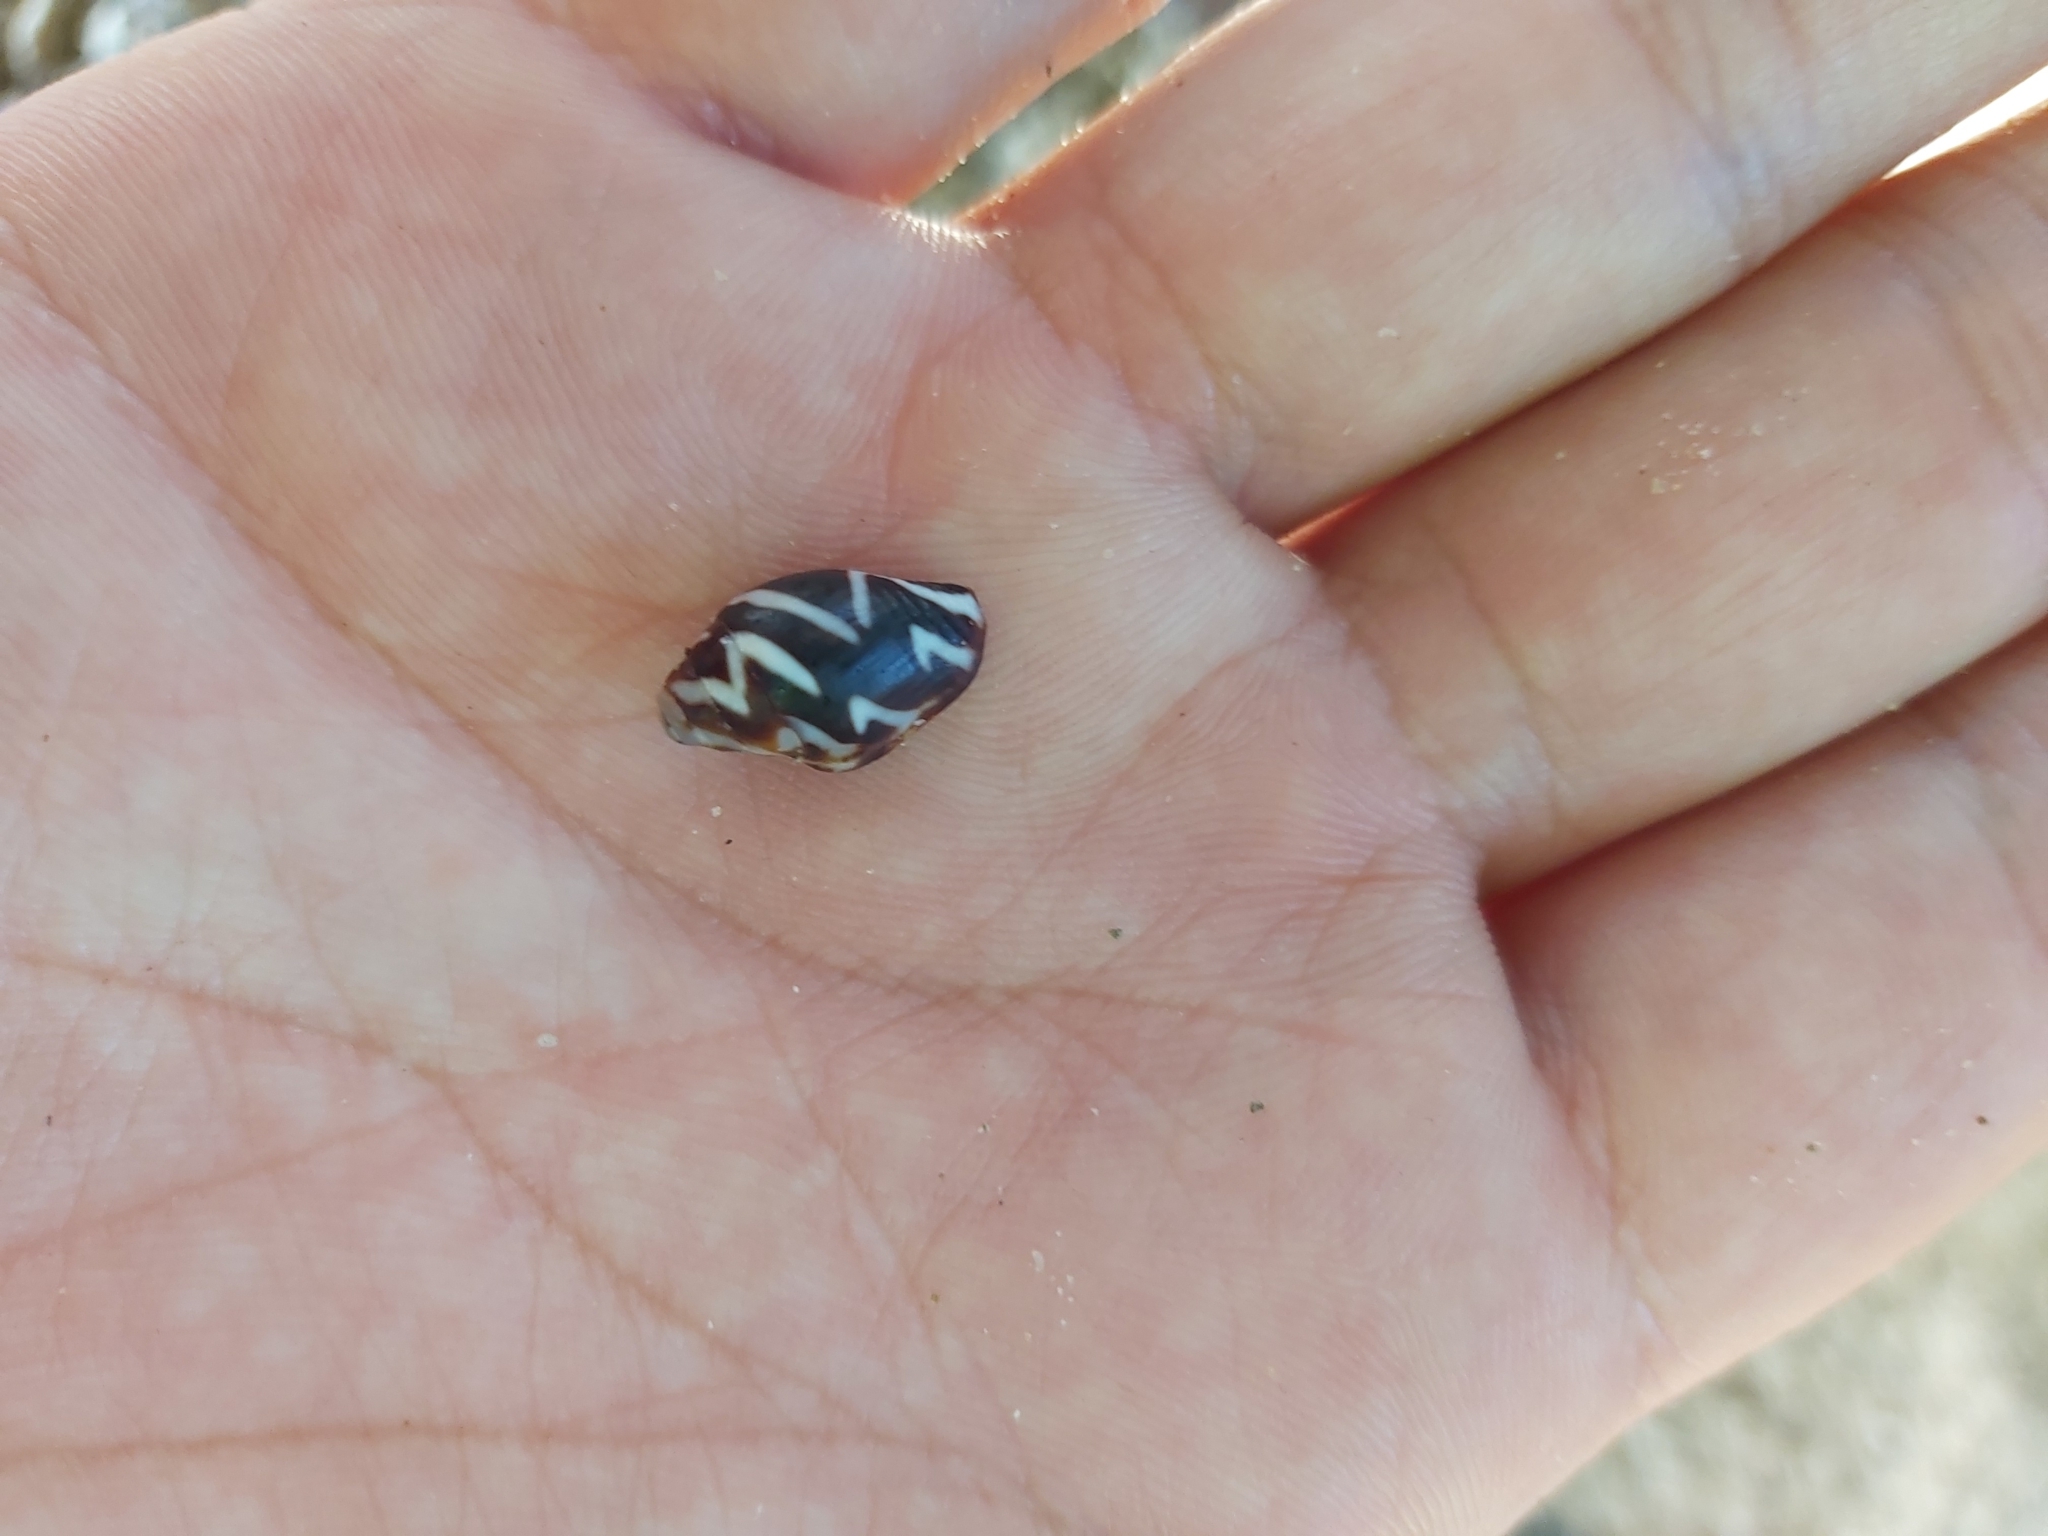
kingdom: Animalia
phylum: Mollusca
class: Gastropoda
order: Neogastropoda
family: Columbellidae
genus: Pictocolumbella
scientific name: Pictocolumbella ocellata
